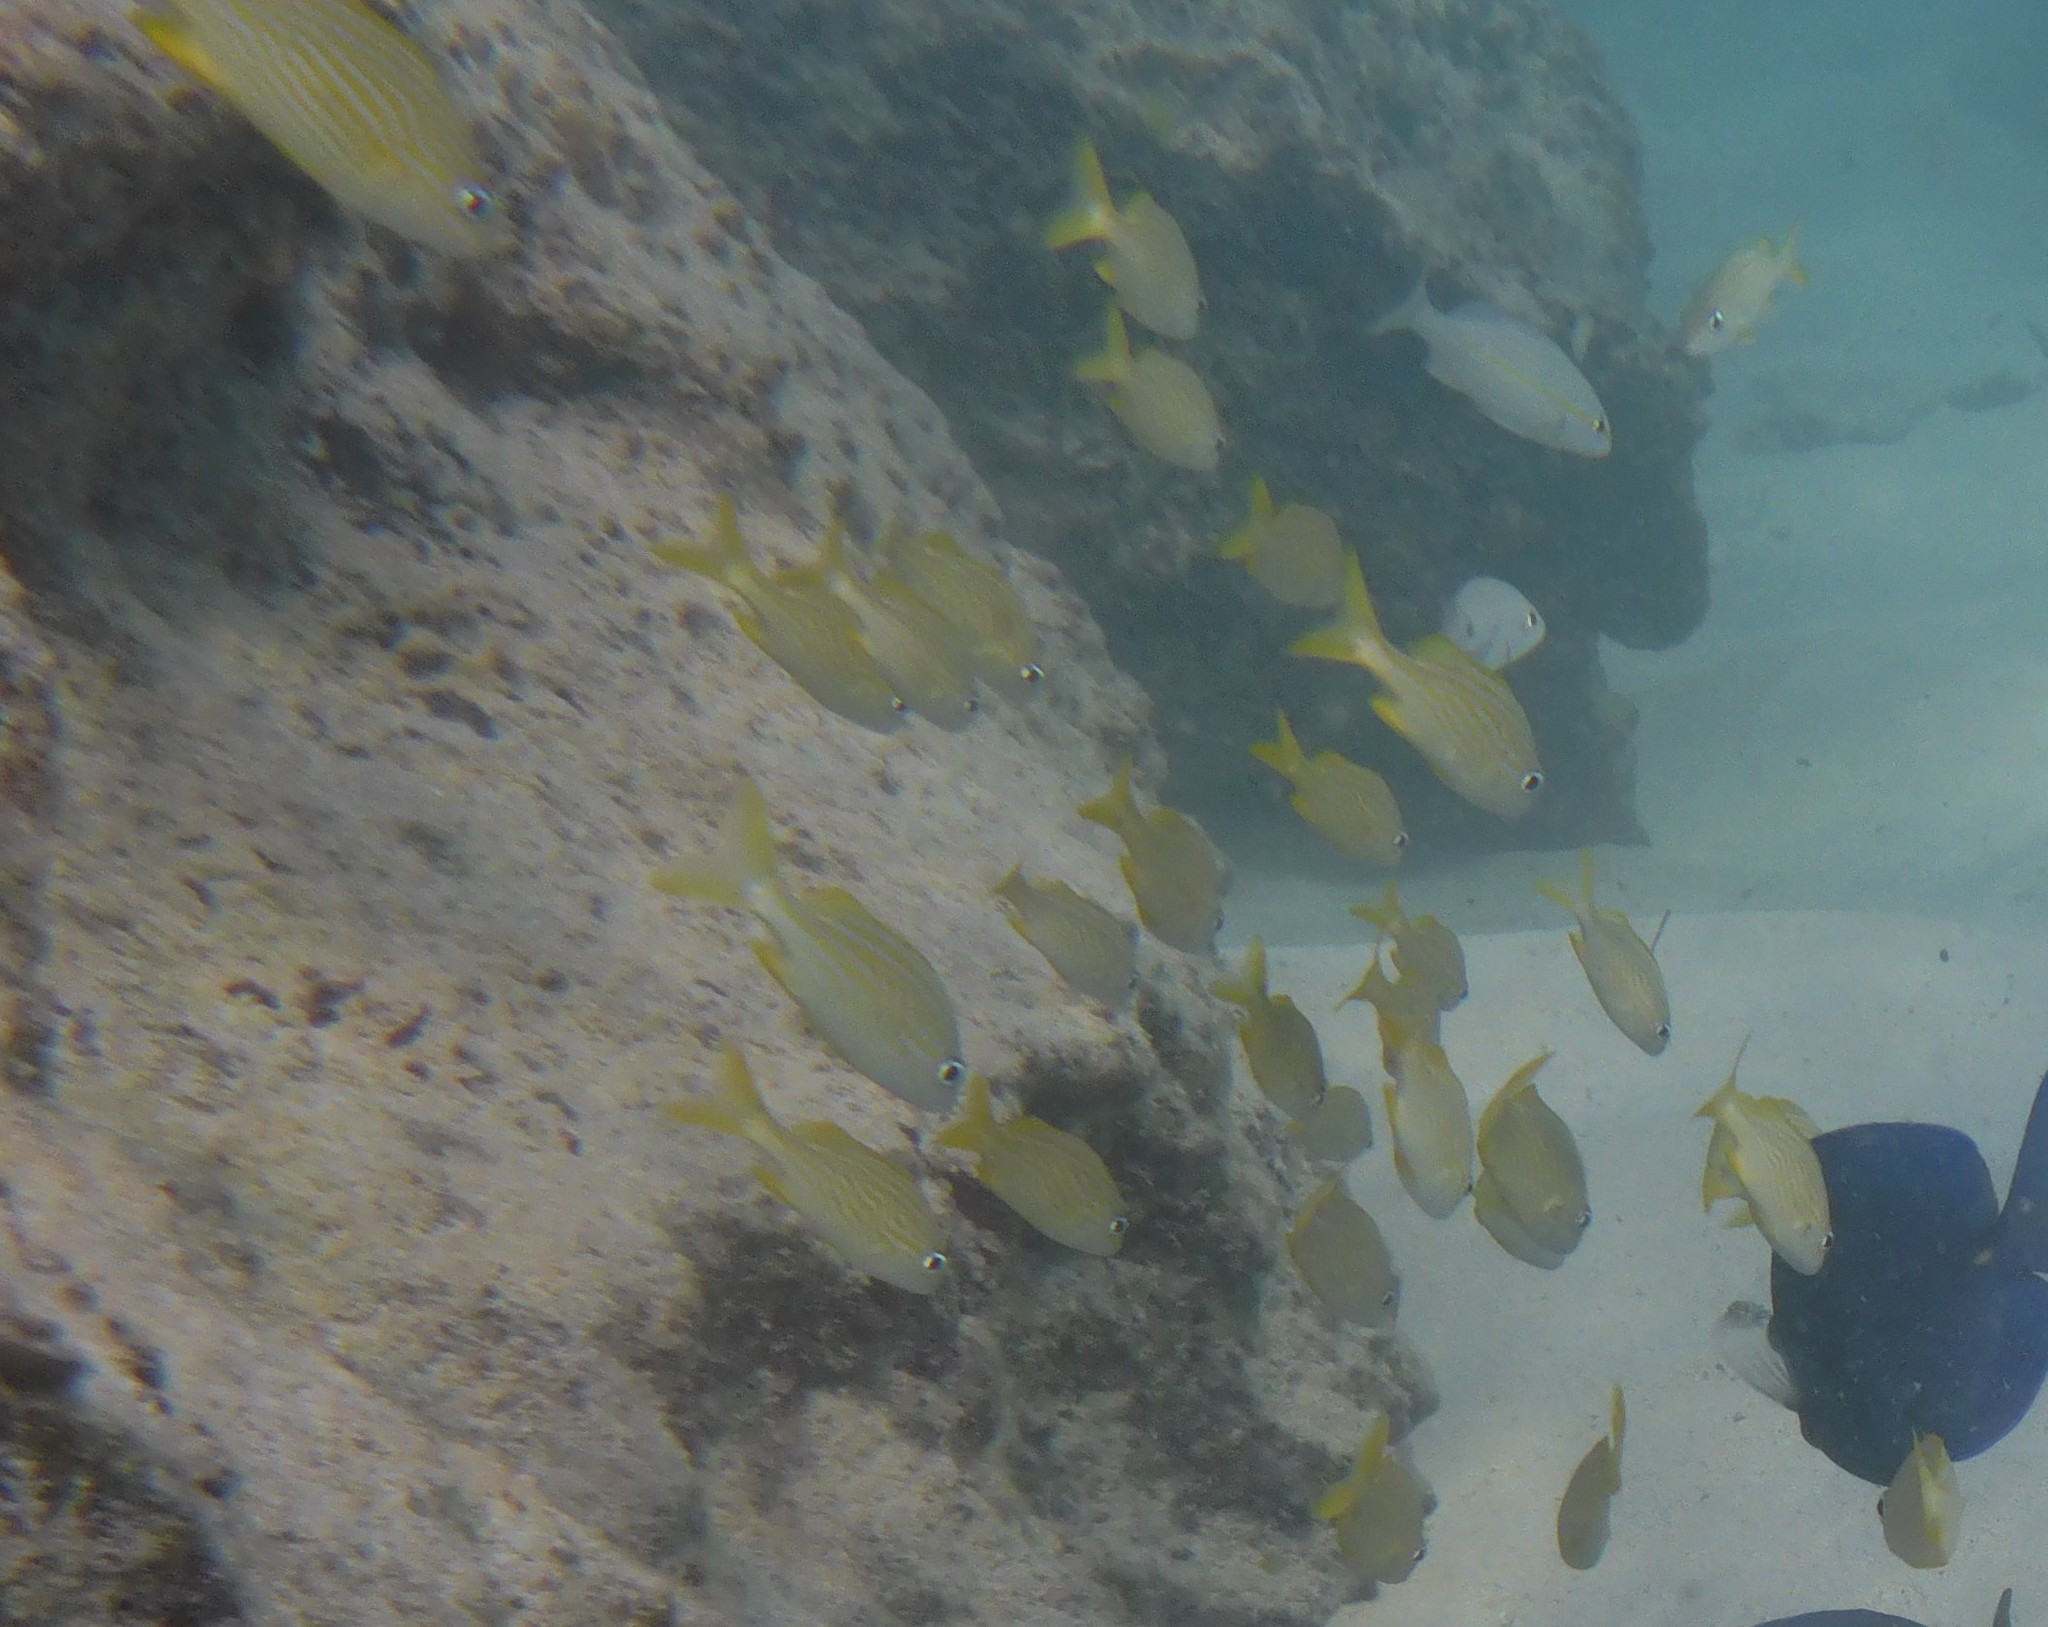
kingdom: Animalia
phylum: Chordata
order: Perciformes
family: Haemulidae
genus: Haemulon
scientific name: Haemulon flavolineatum
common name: French grunt
